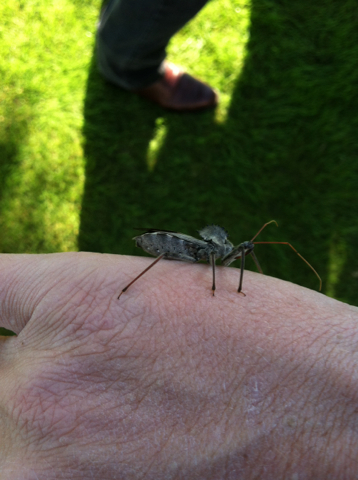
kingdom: Animalia
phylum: Arthropoda
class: Insecta
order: Hemiptera
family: Reduviidae
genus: Arilus
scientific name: Arilus cristatus
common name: North american wheel bug
